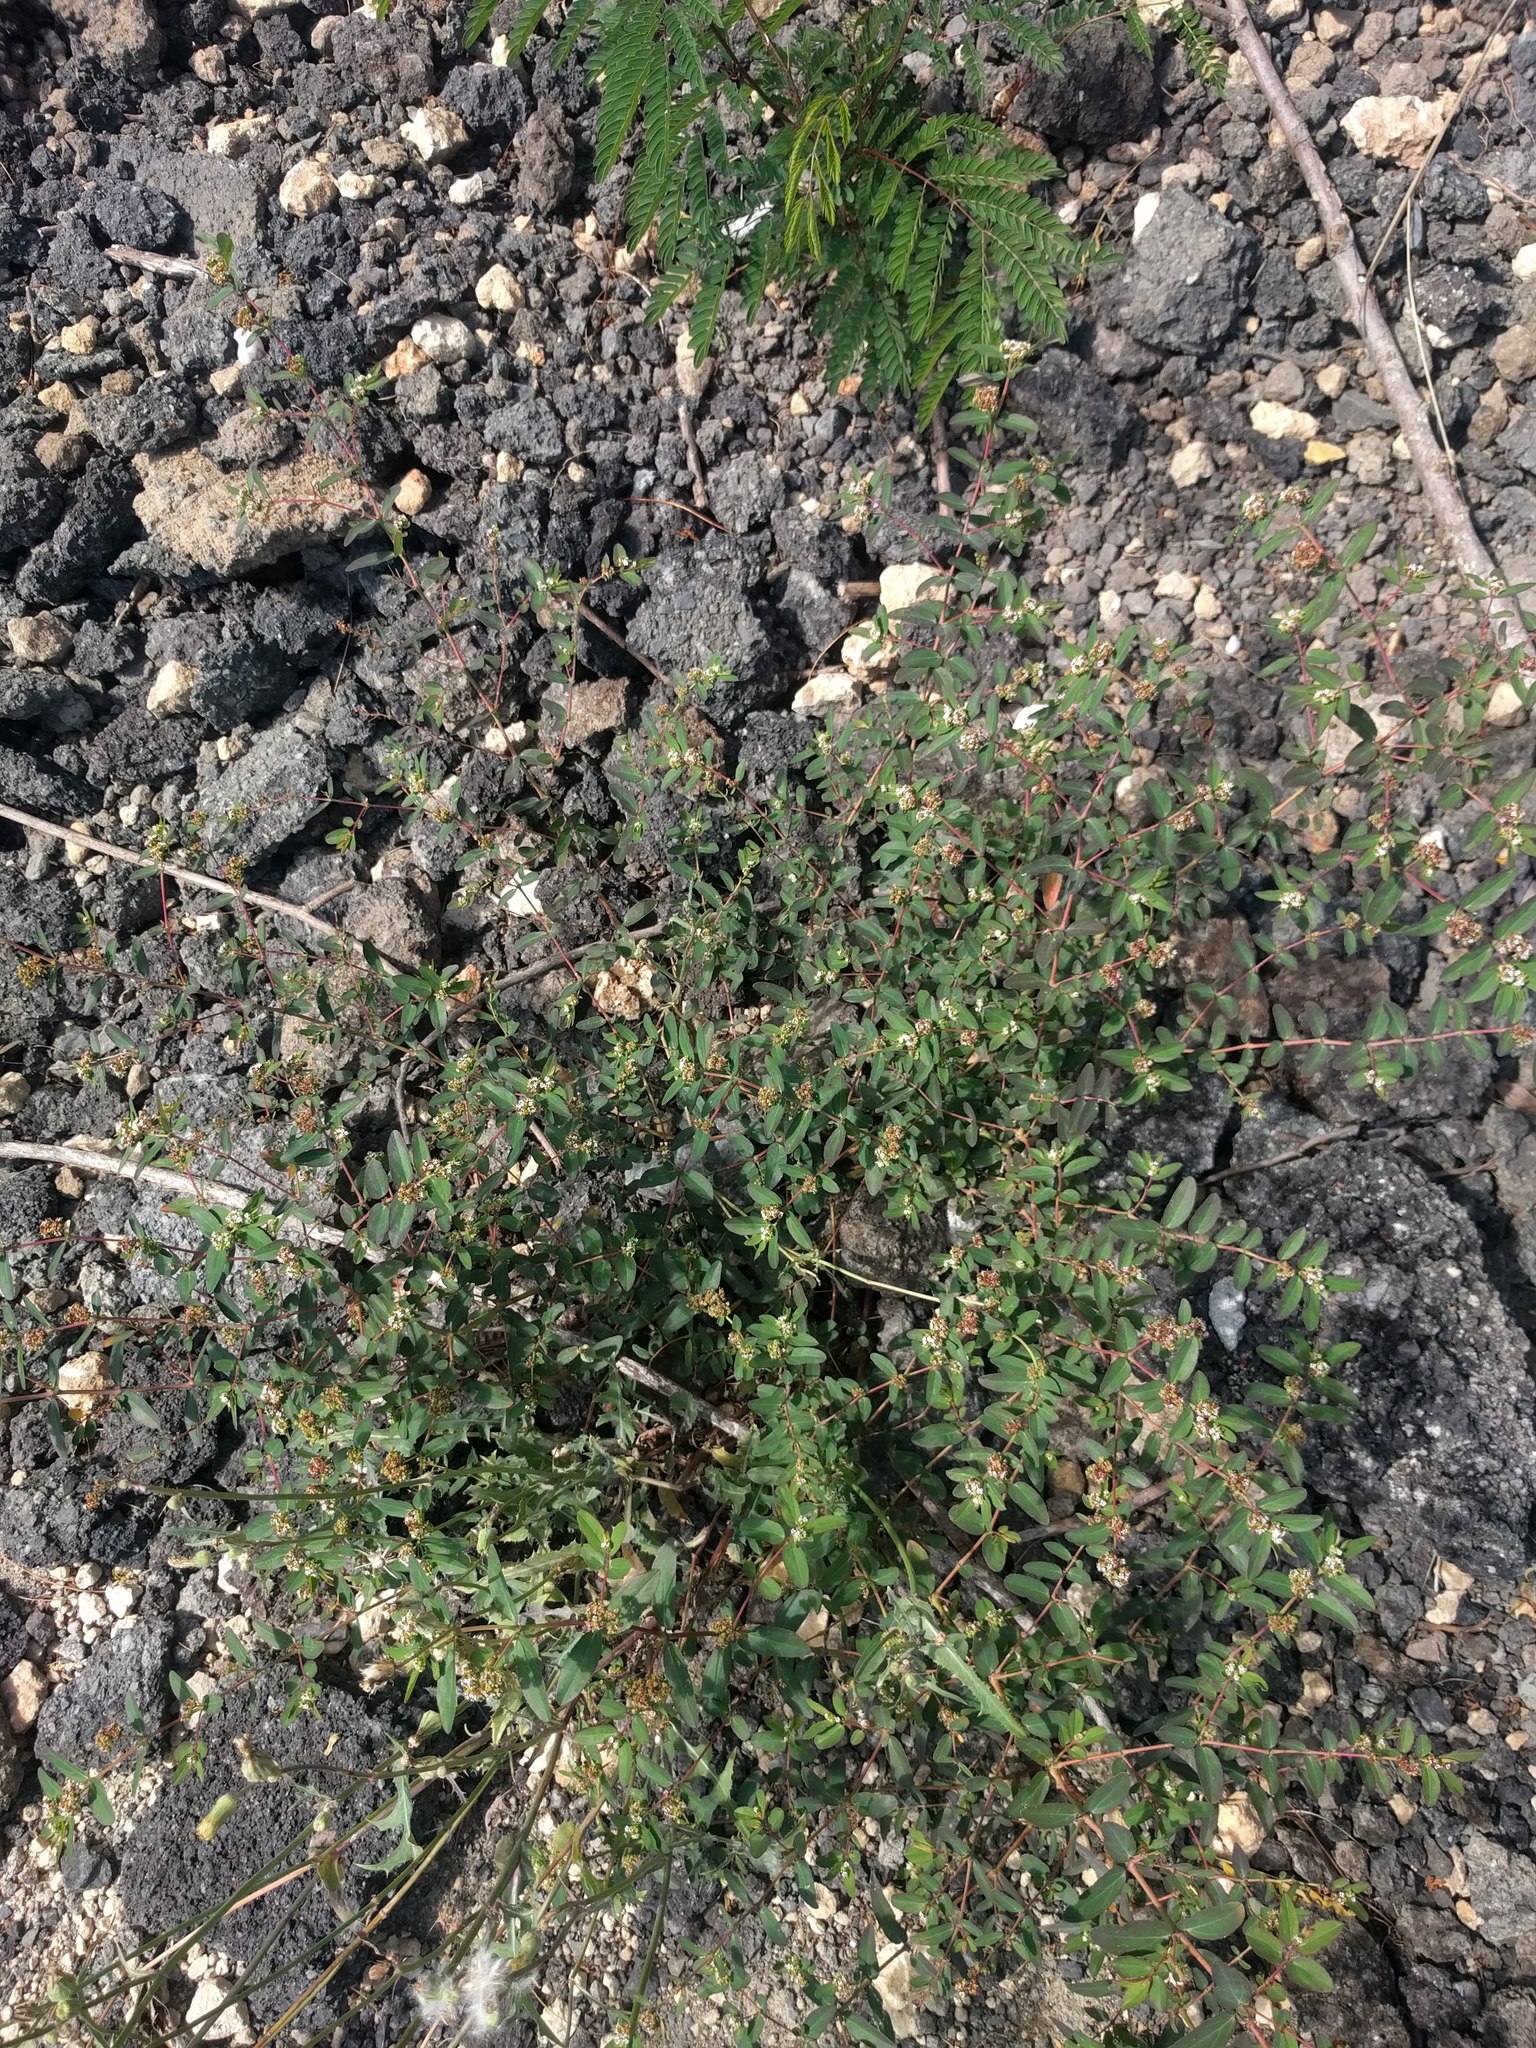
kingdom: Plantae
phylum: Tracheophyta
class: Magnoliopsida
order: Malpighiales
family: Euphorbiaceae
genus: Euphorbia
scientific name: Euphorbia hypericifolia
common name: Graceful sandmat
